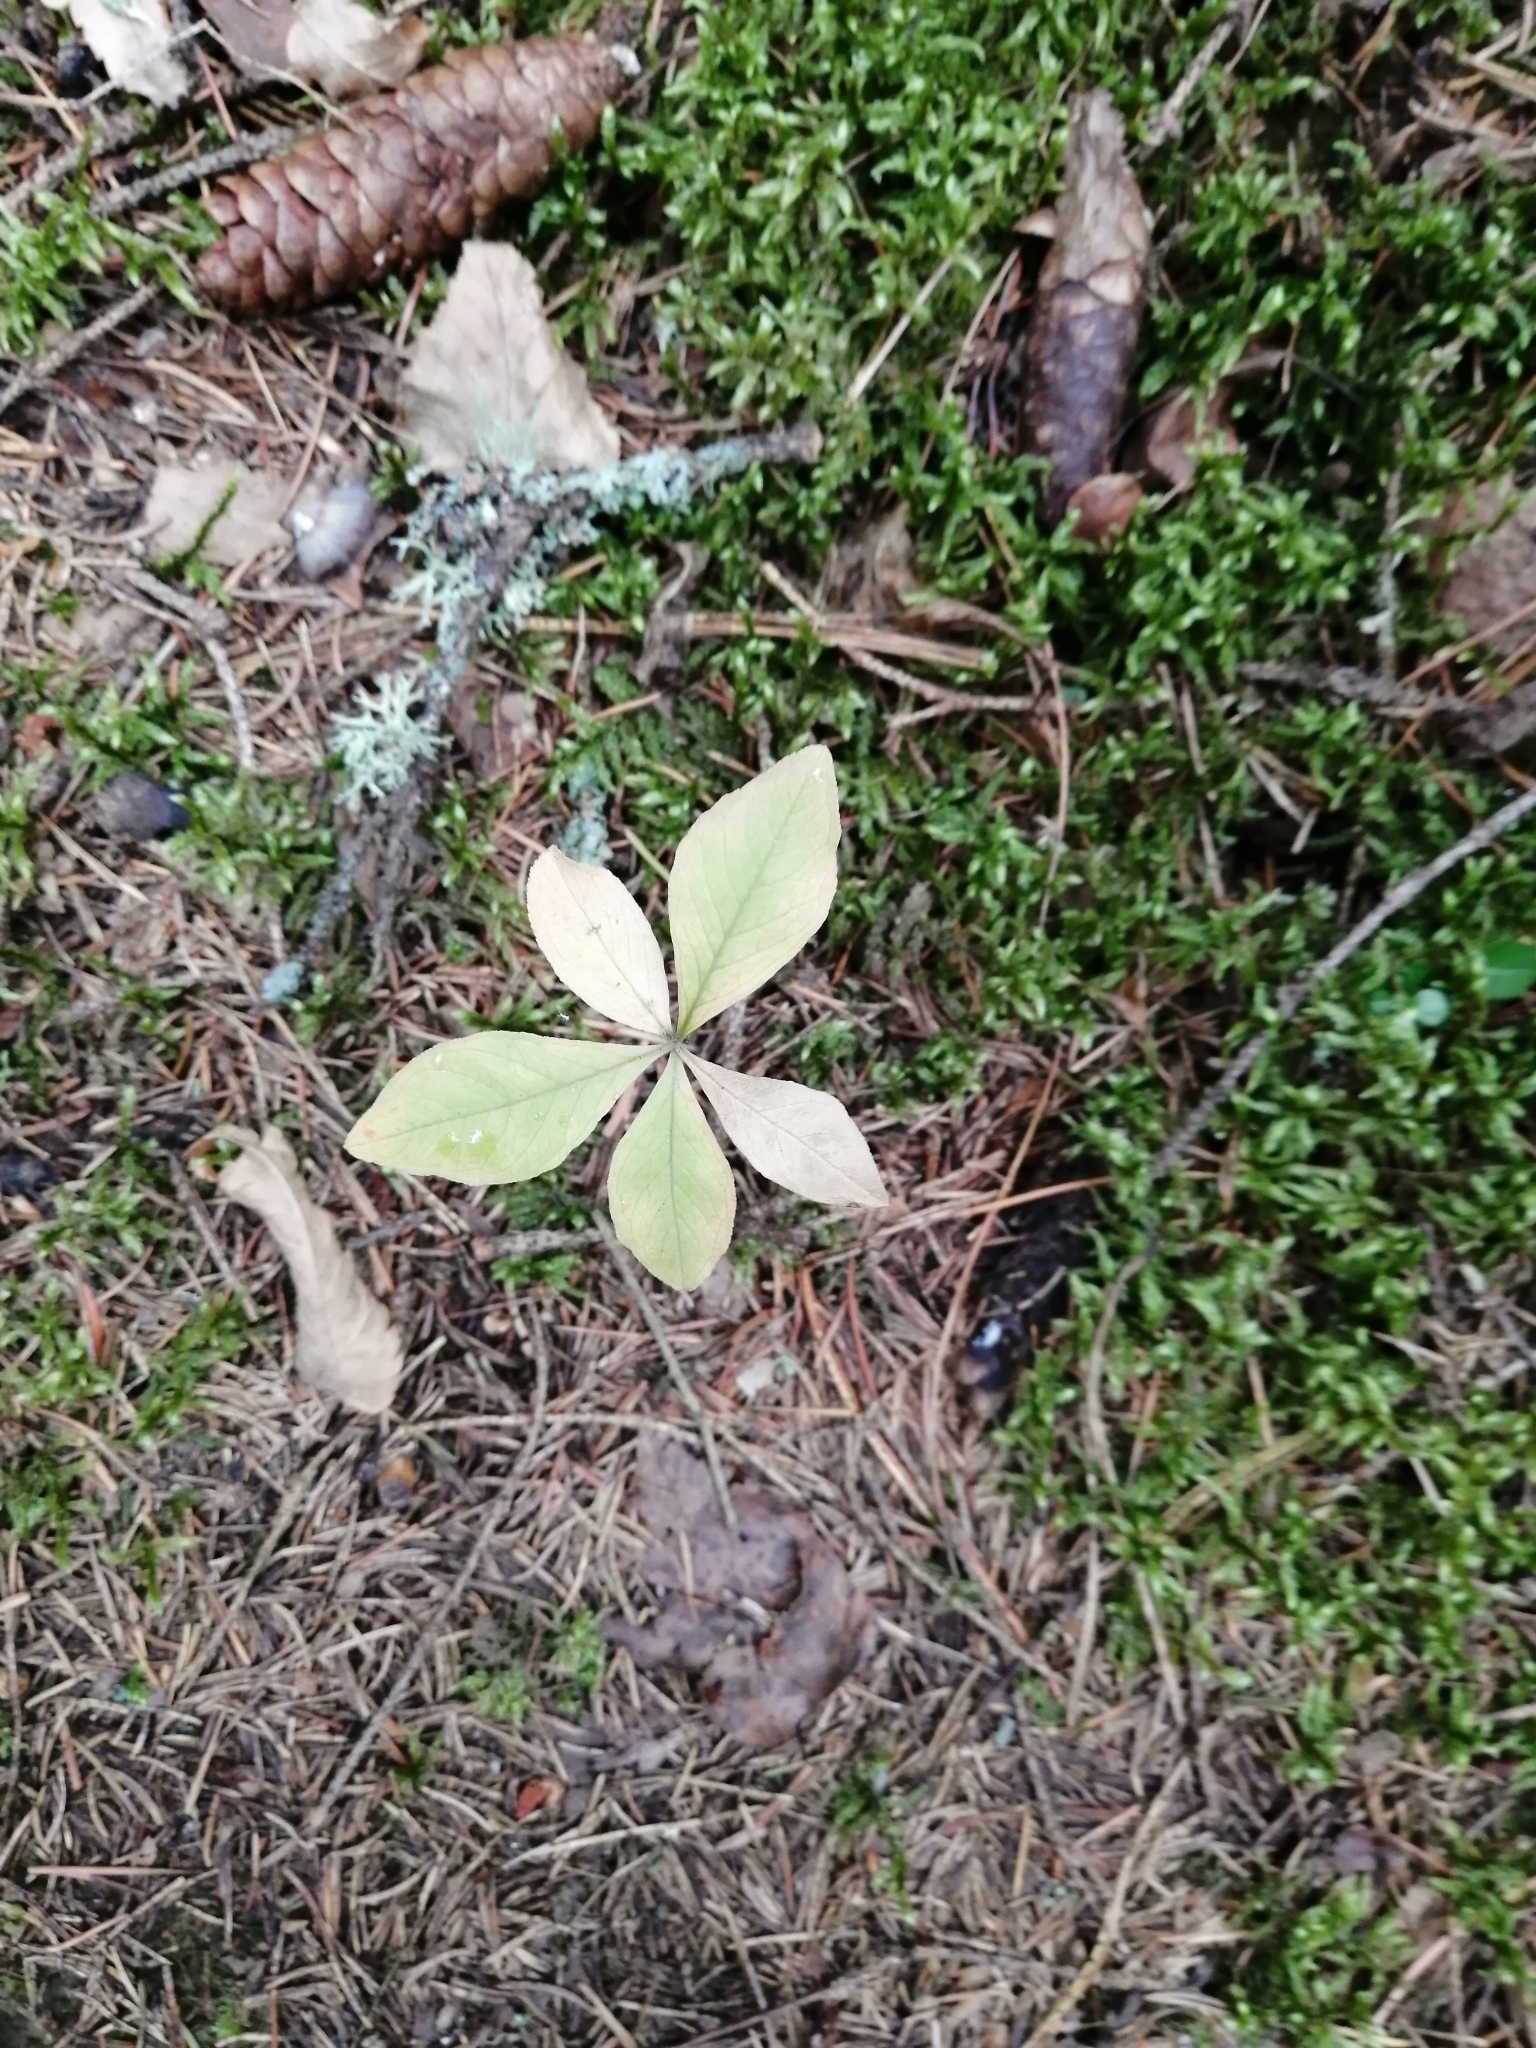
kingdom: Plantae
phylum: Tracheophyta
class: Magnoliopsida
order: Ericales
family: Primulaceae
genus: Lysimachia
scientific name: Lysimachia europaea
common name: Arctic starflower
